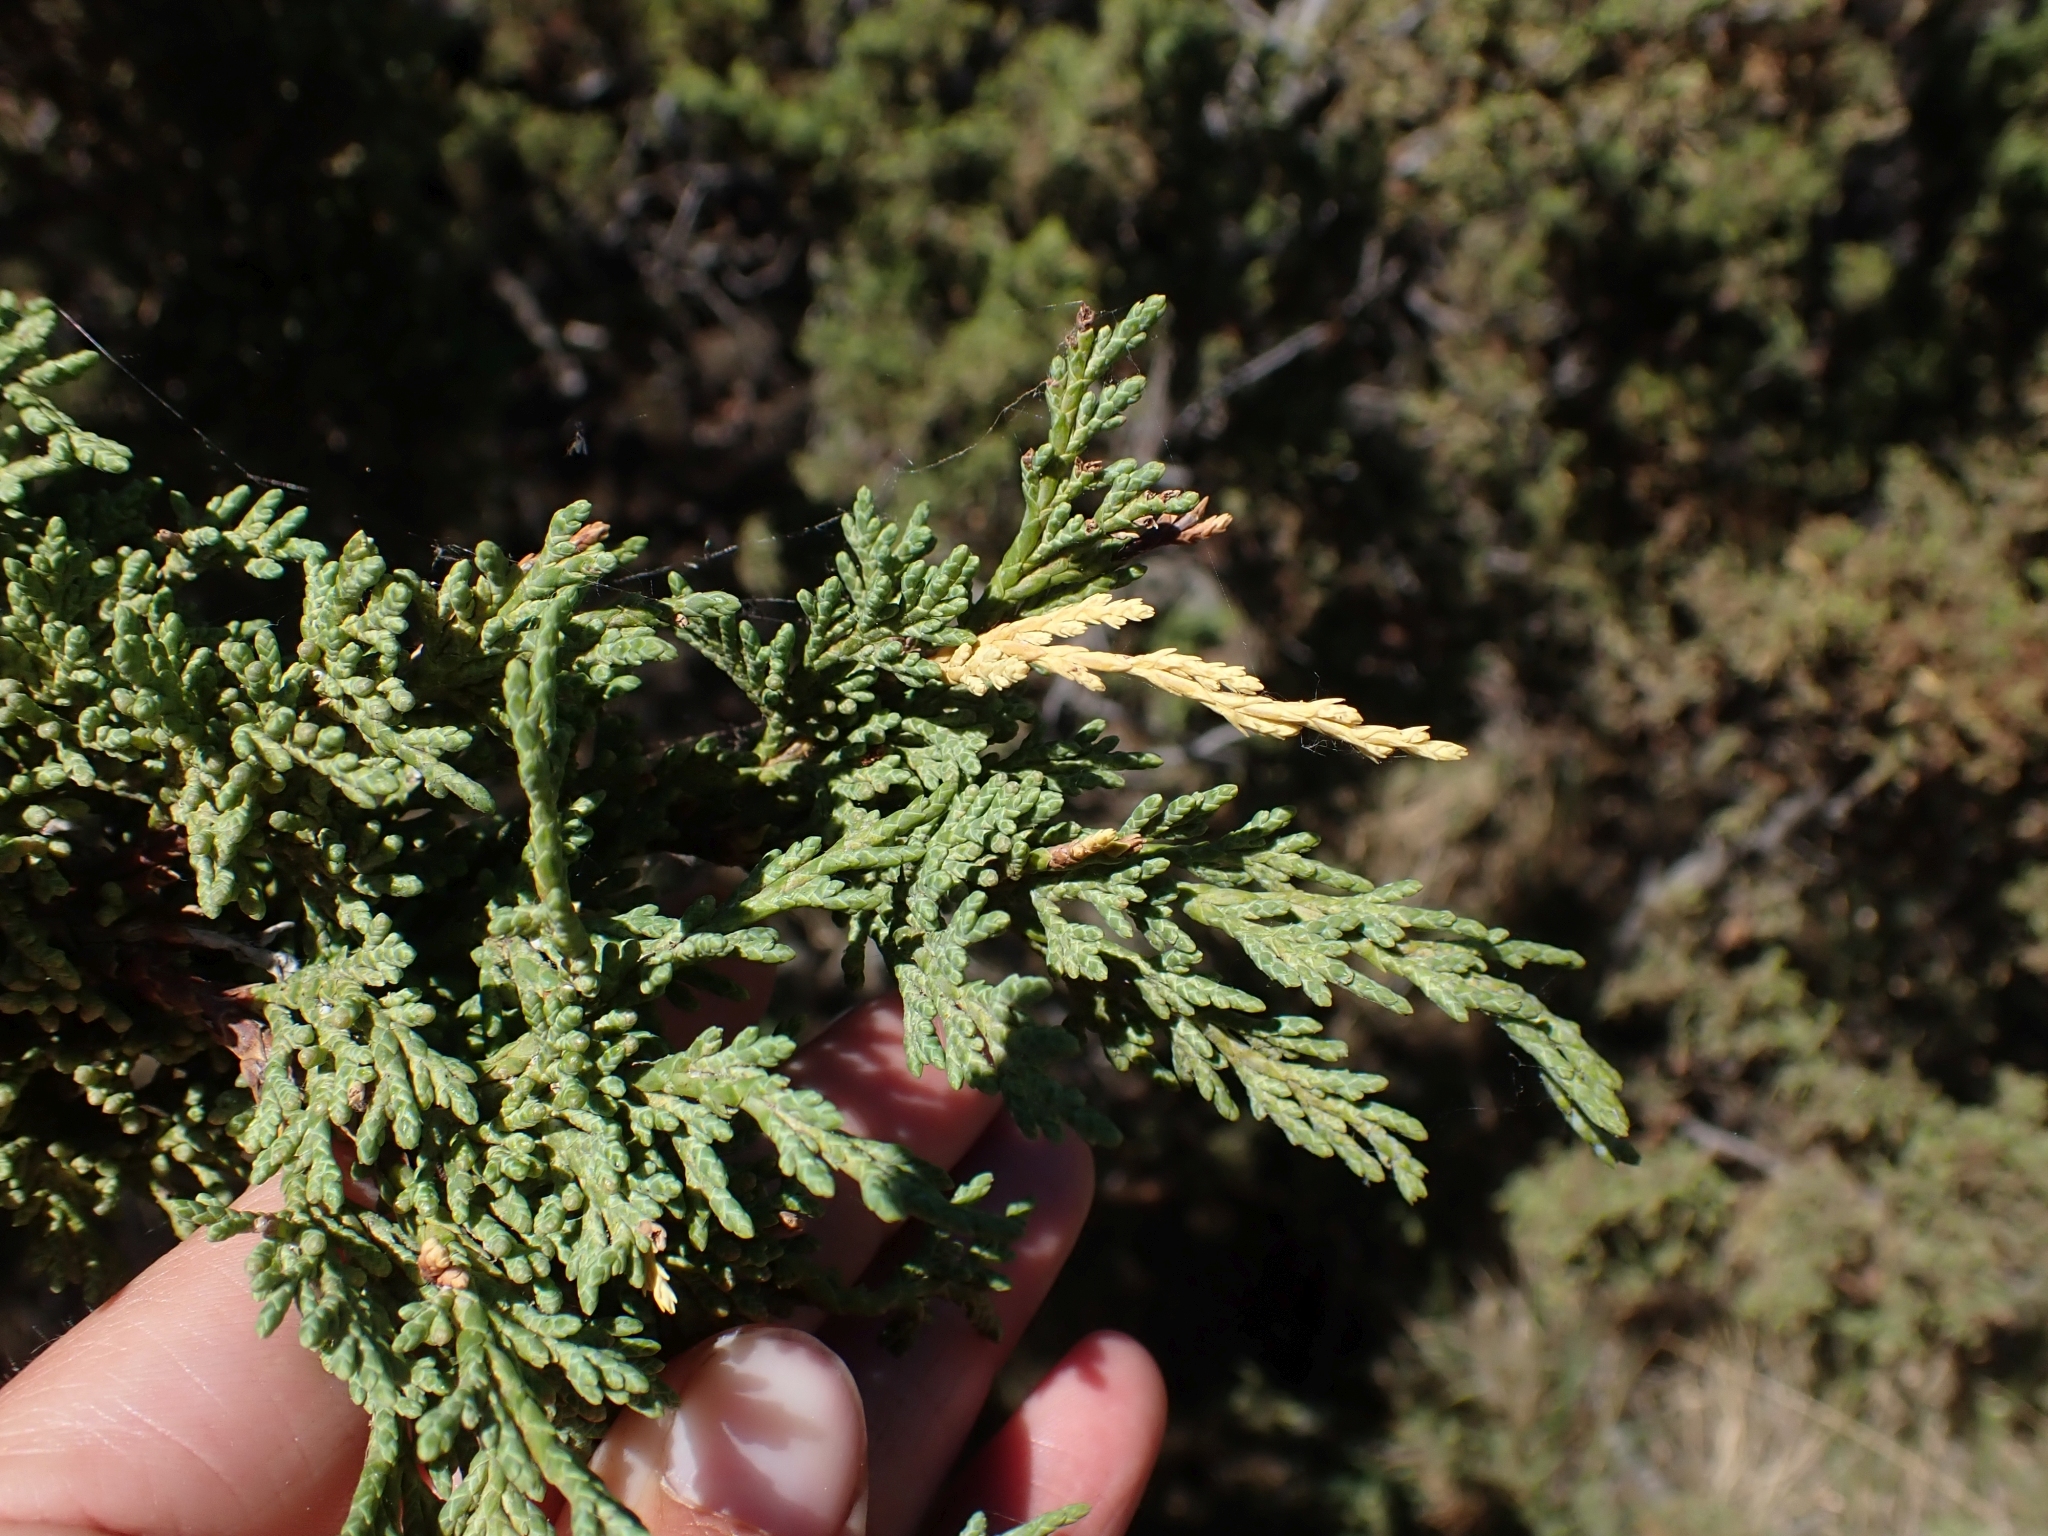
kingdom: Plantae
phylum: Tracheophyta
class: Pinopsida
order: Pinales
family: Cupressaceae
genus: Juniperus
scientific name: Juniperus scopulorum
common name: Rocky mountain juniper
